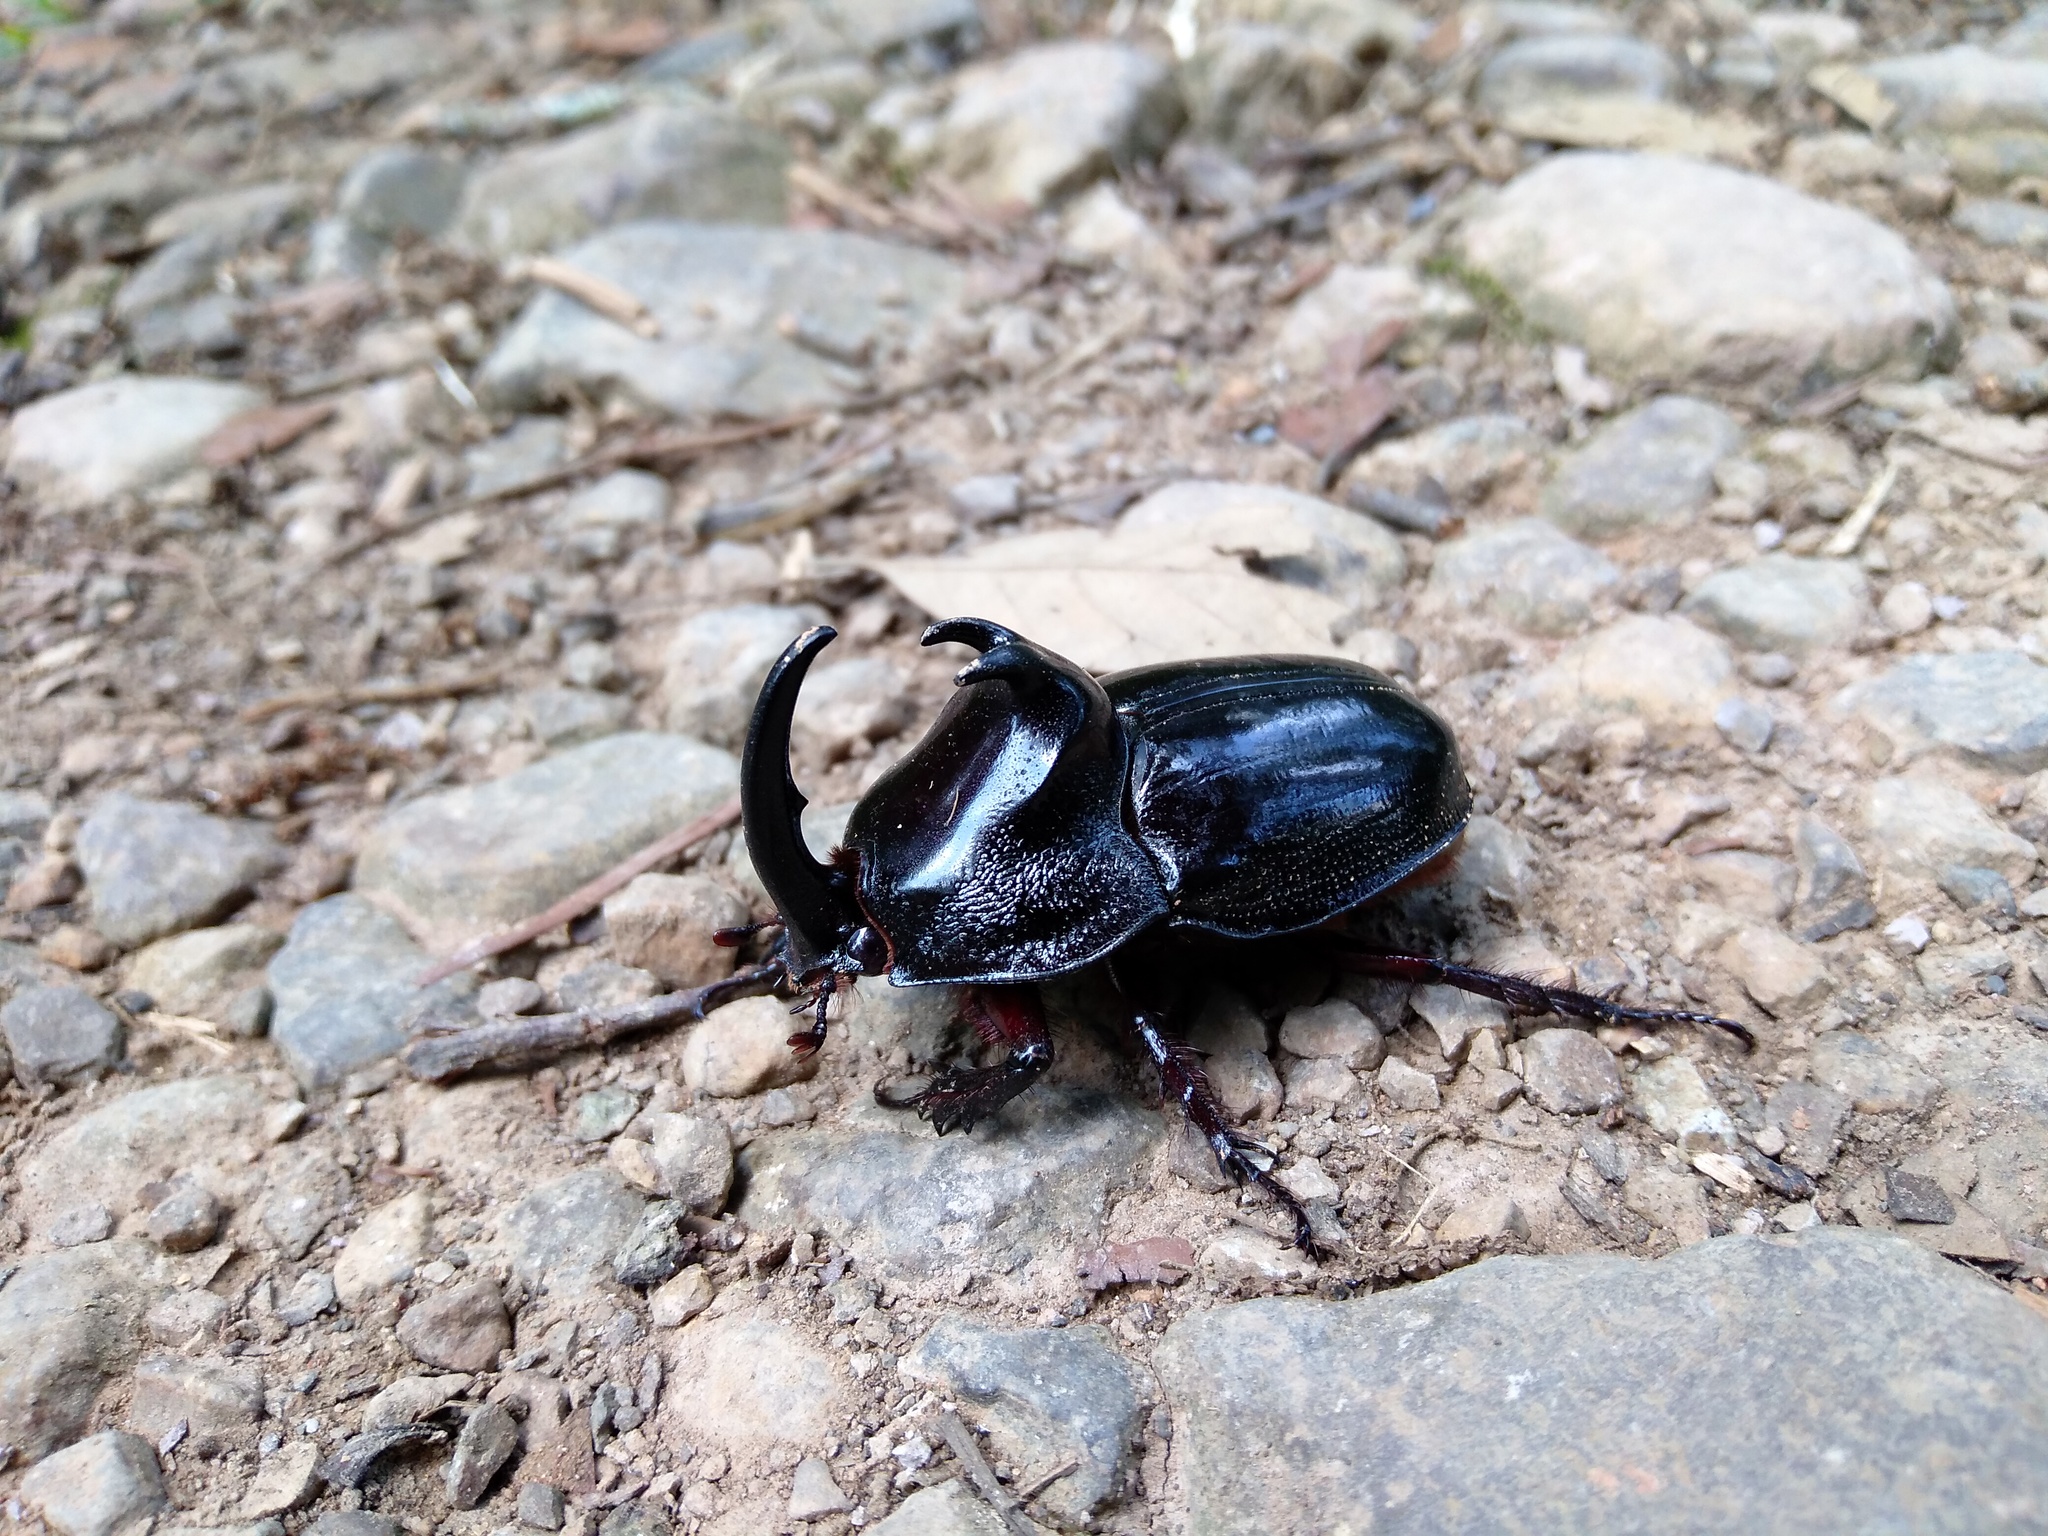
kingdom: Animalia
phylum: Arthropoda
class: Insecta
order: Coleoptera
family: Scarabaeidae
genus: Enema
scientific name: Enema pan
